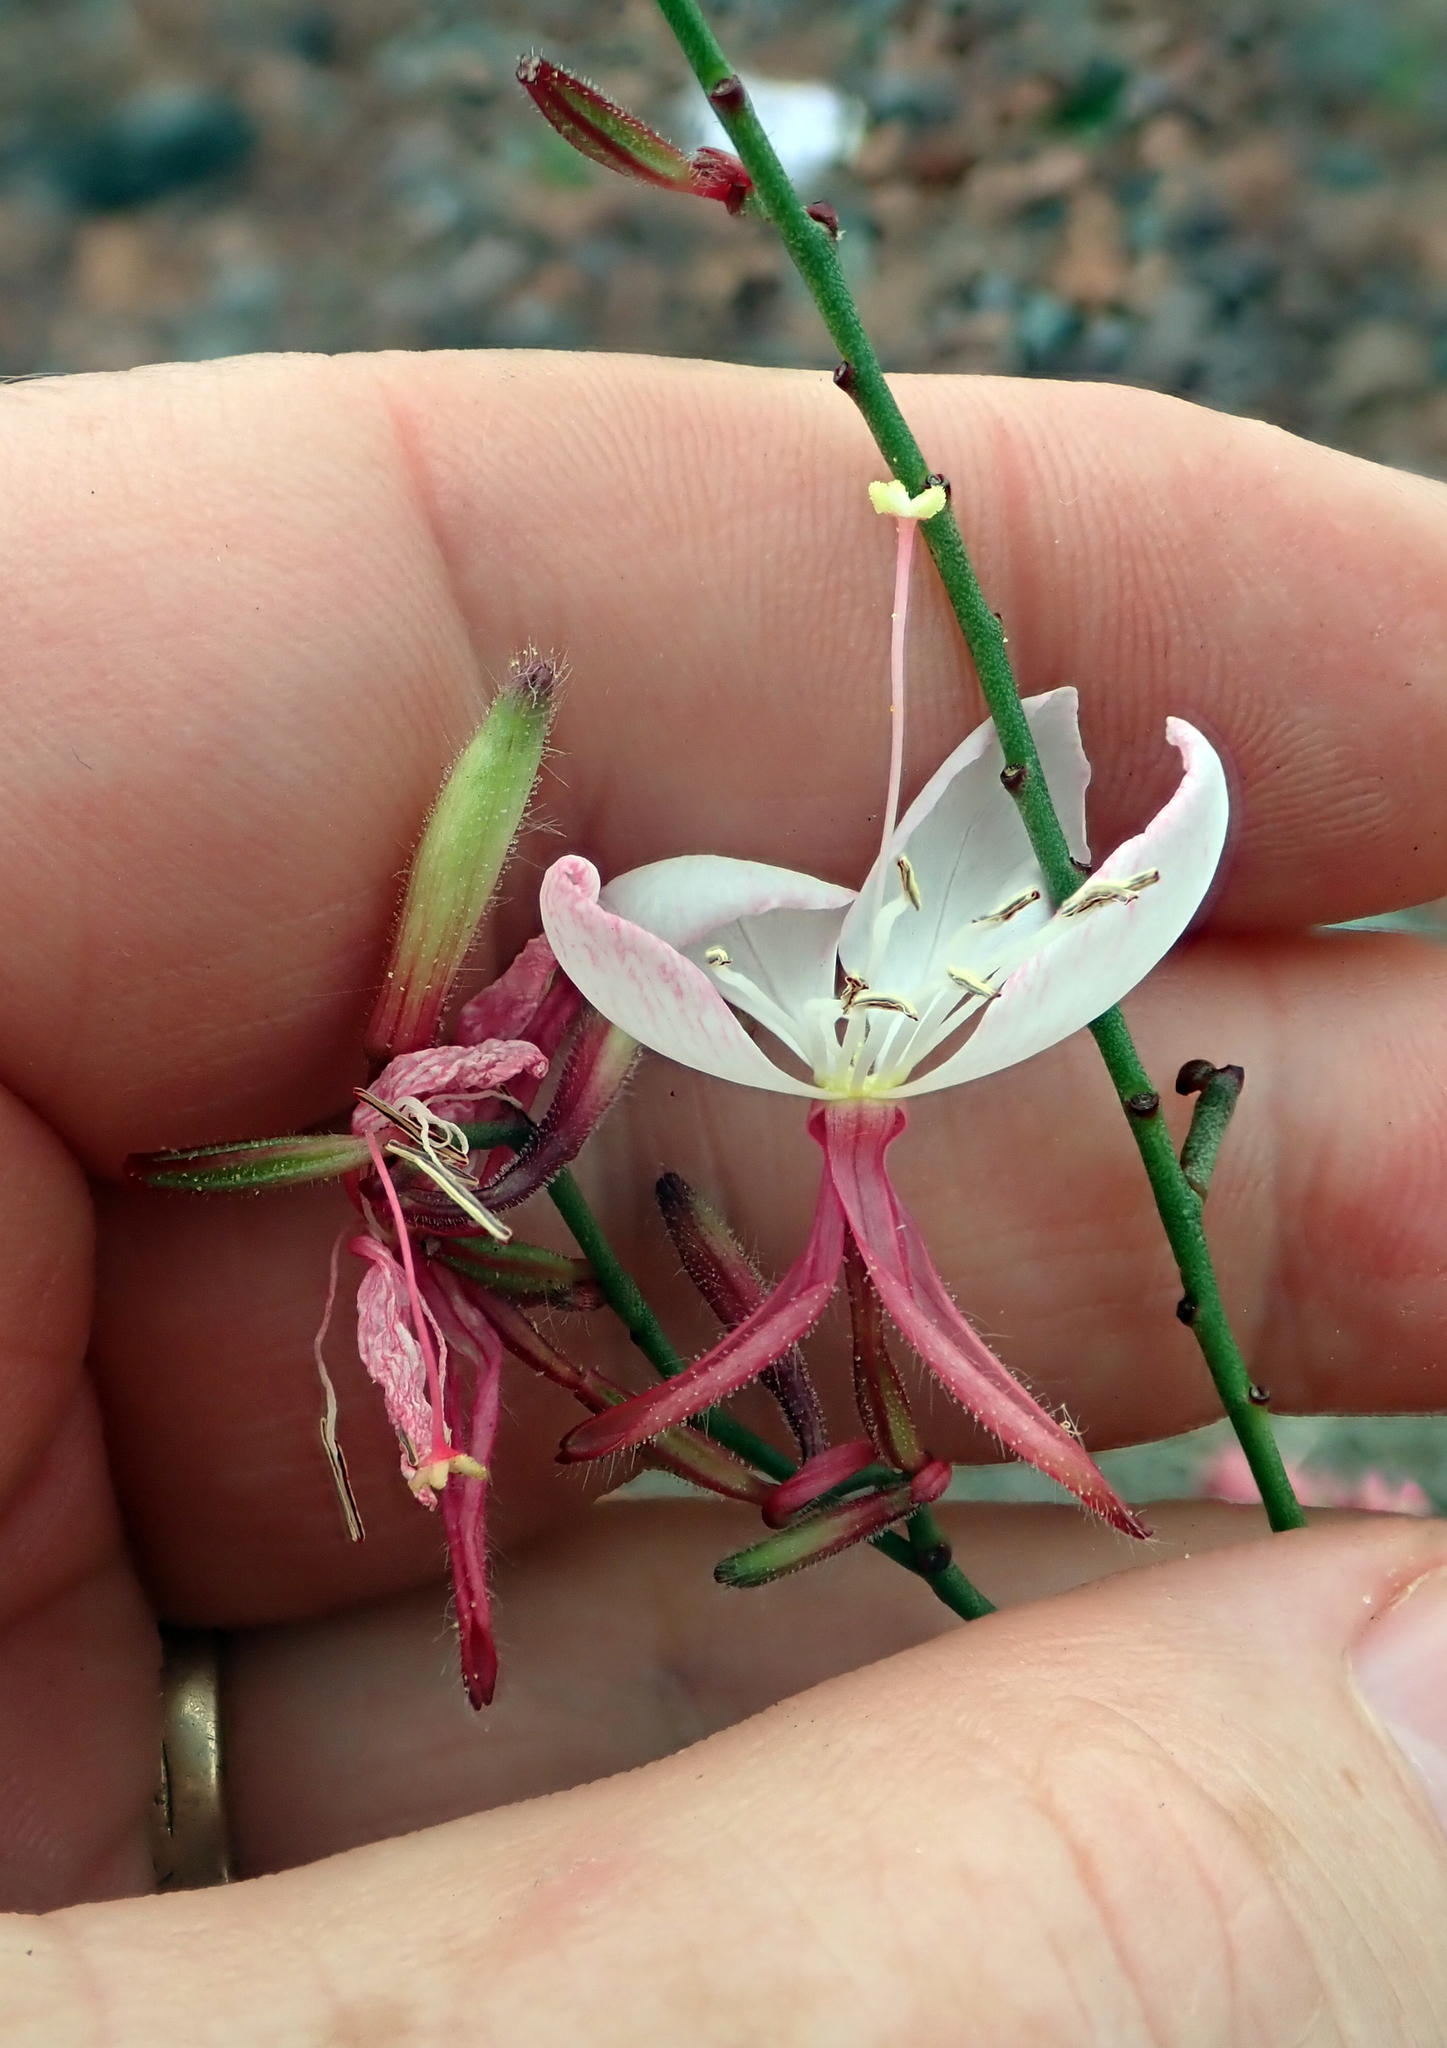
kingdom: Plantae
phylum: Tracheophyta
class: Magnoliopsida
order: Myrtales
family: Onagraceae
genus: Oenothera
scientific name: Oenothera lindheimeri
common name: Lindheimer's beeblossom
